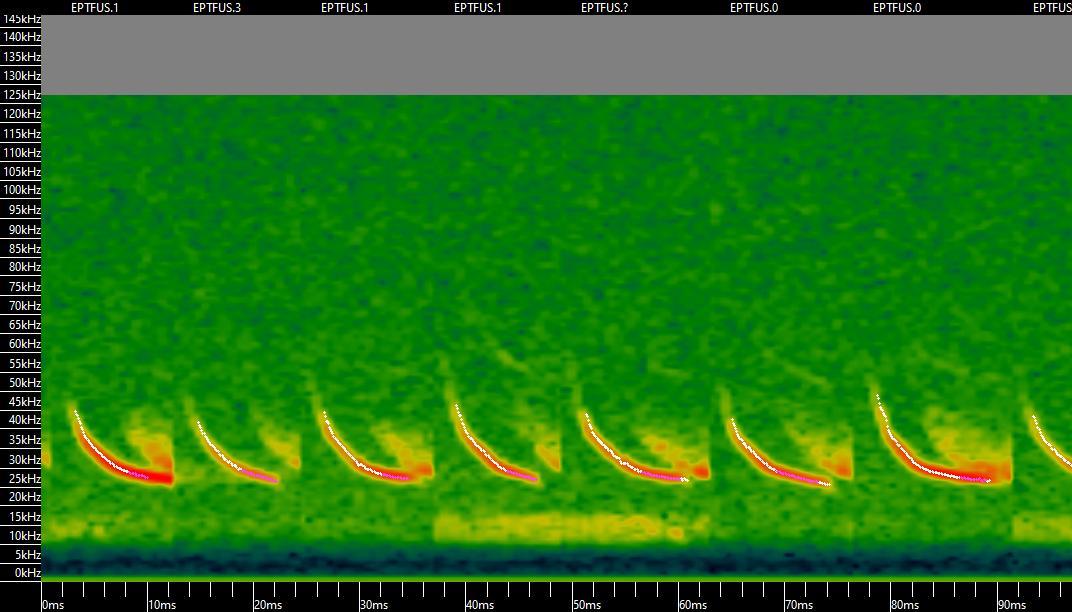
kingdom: Animalia
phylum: Chordata
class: Mammalia
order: Chiroptera
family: Vespertilionidae
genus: Eptesicus
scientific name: Eptesicus fuscus
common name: Big brown bat
